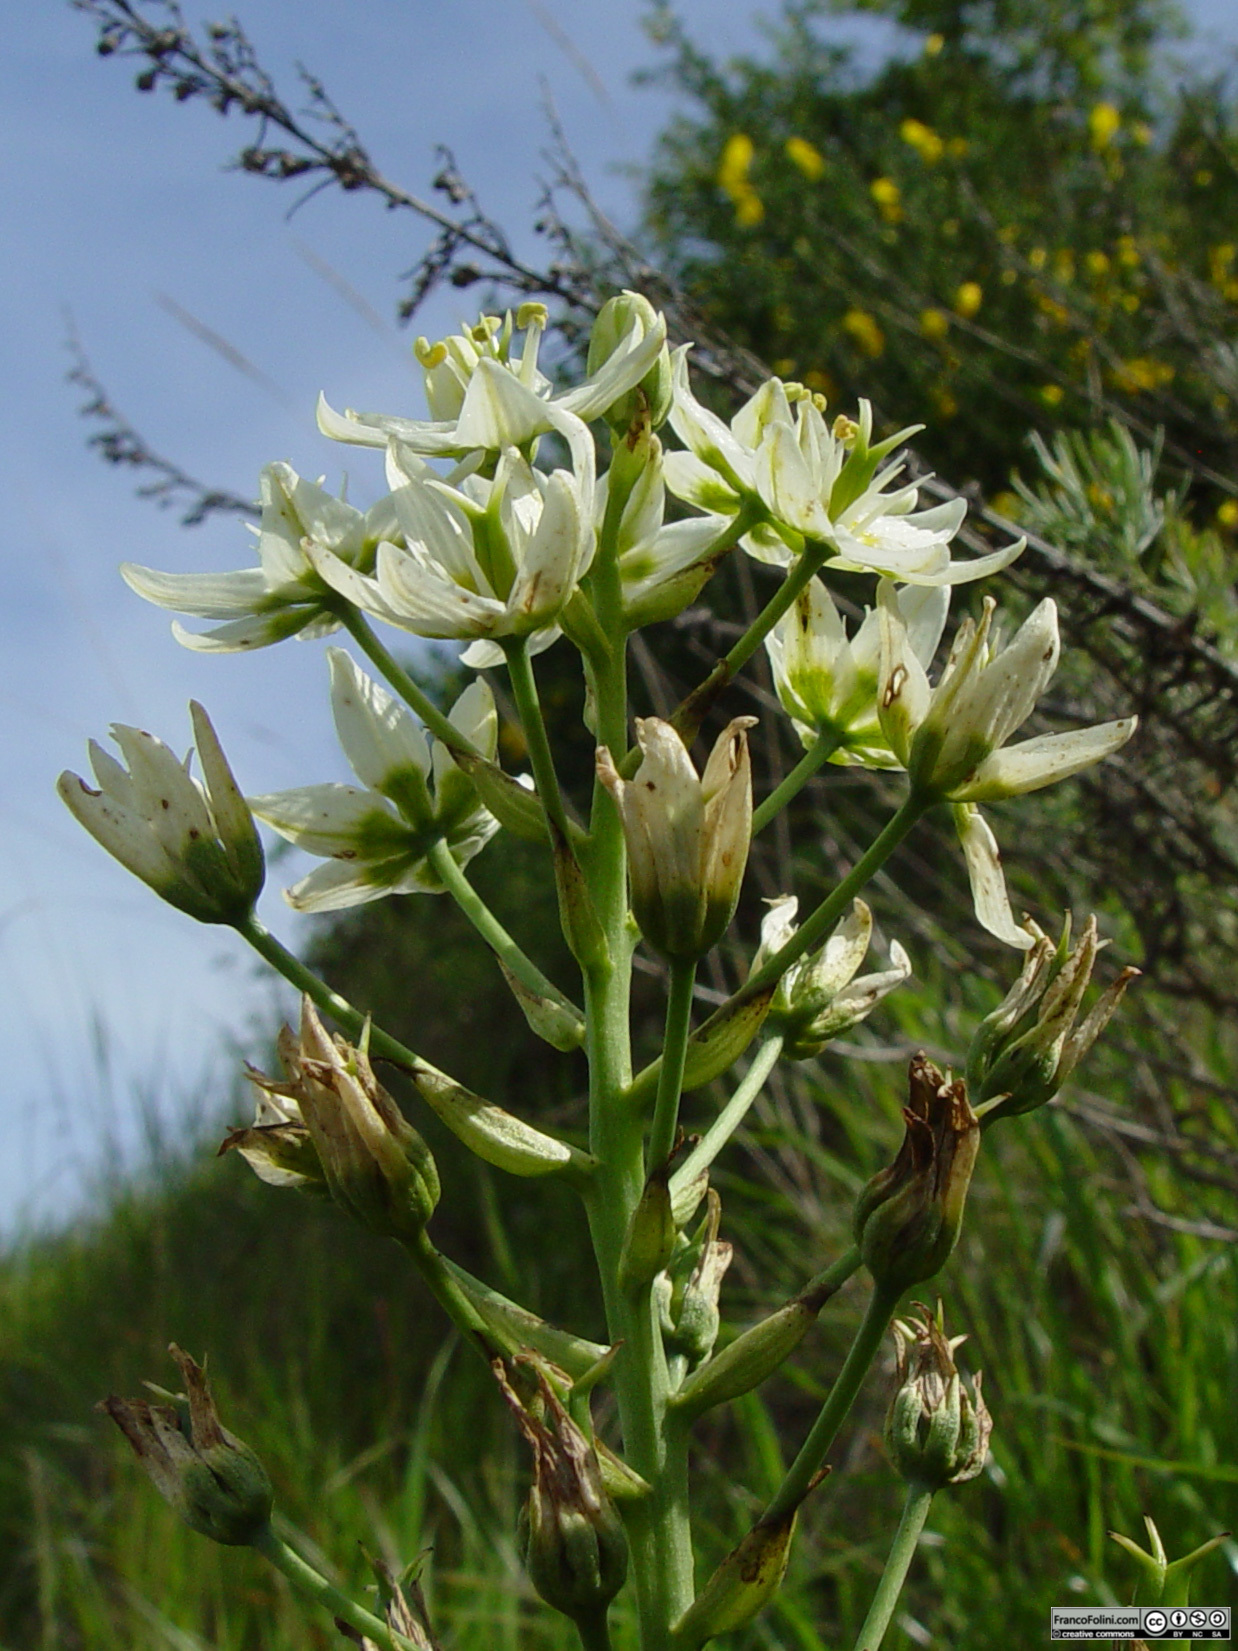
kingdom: Plantae
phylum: Tracheophyta
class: Liliopsida
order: Liliales
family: Melanthiaceae
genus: Toxicoscordion
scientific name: Toxicoscordion fremontii
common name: Fremont's death camas
